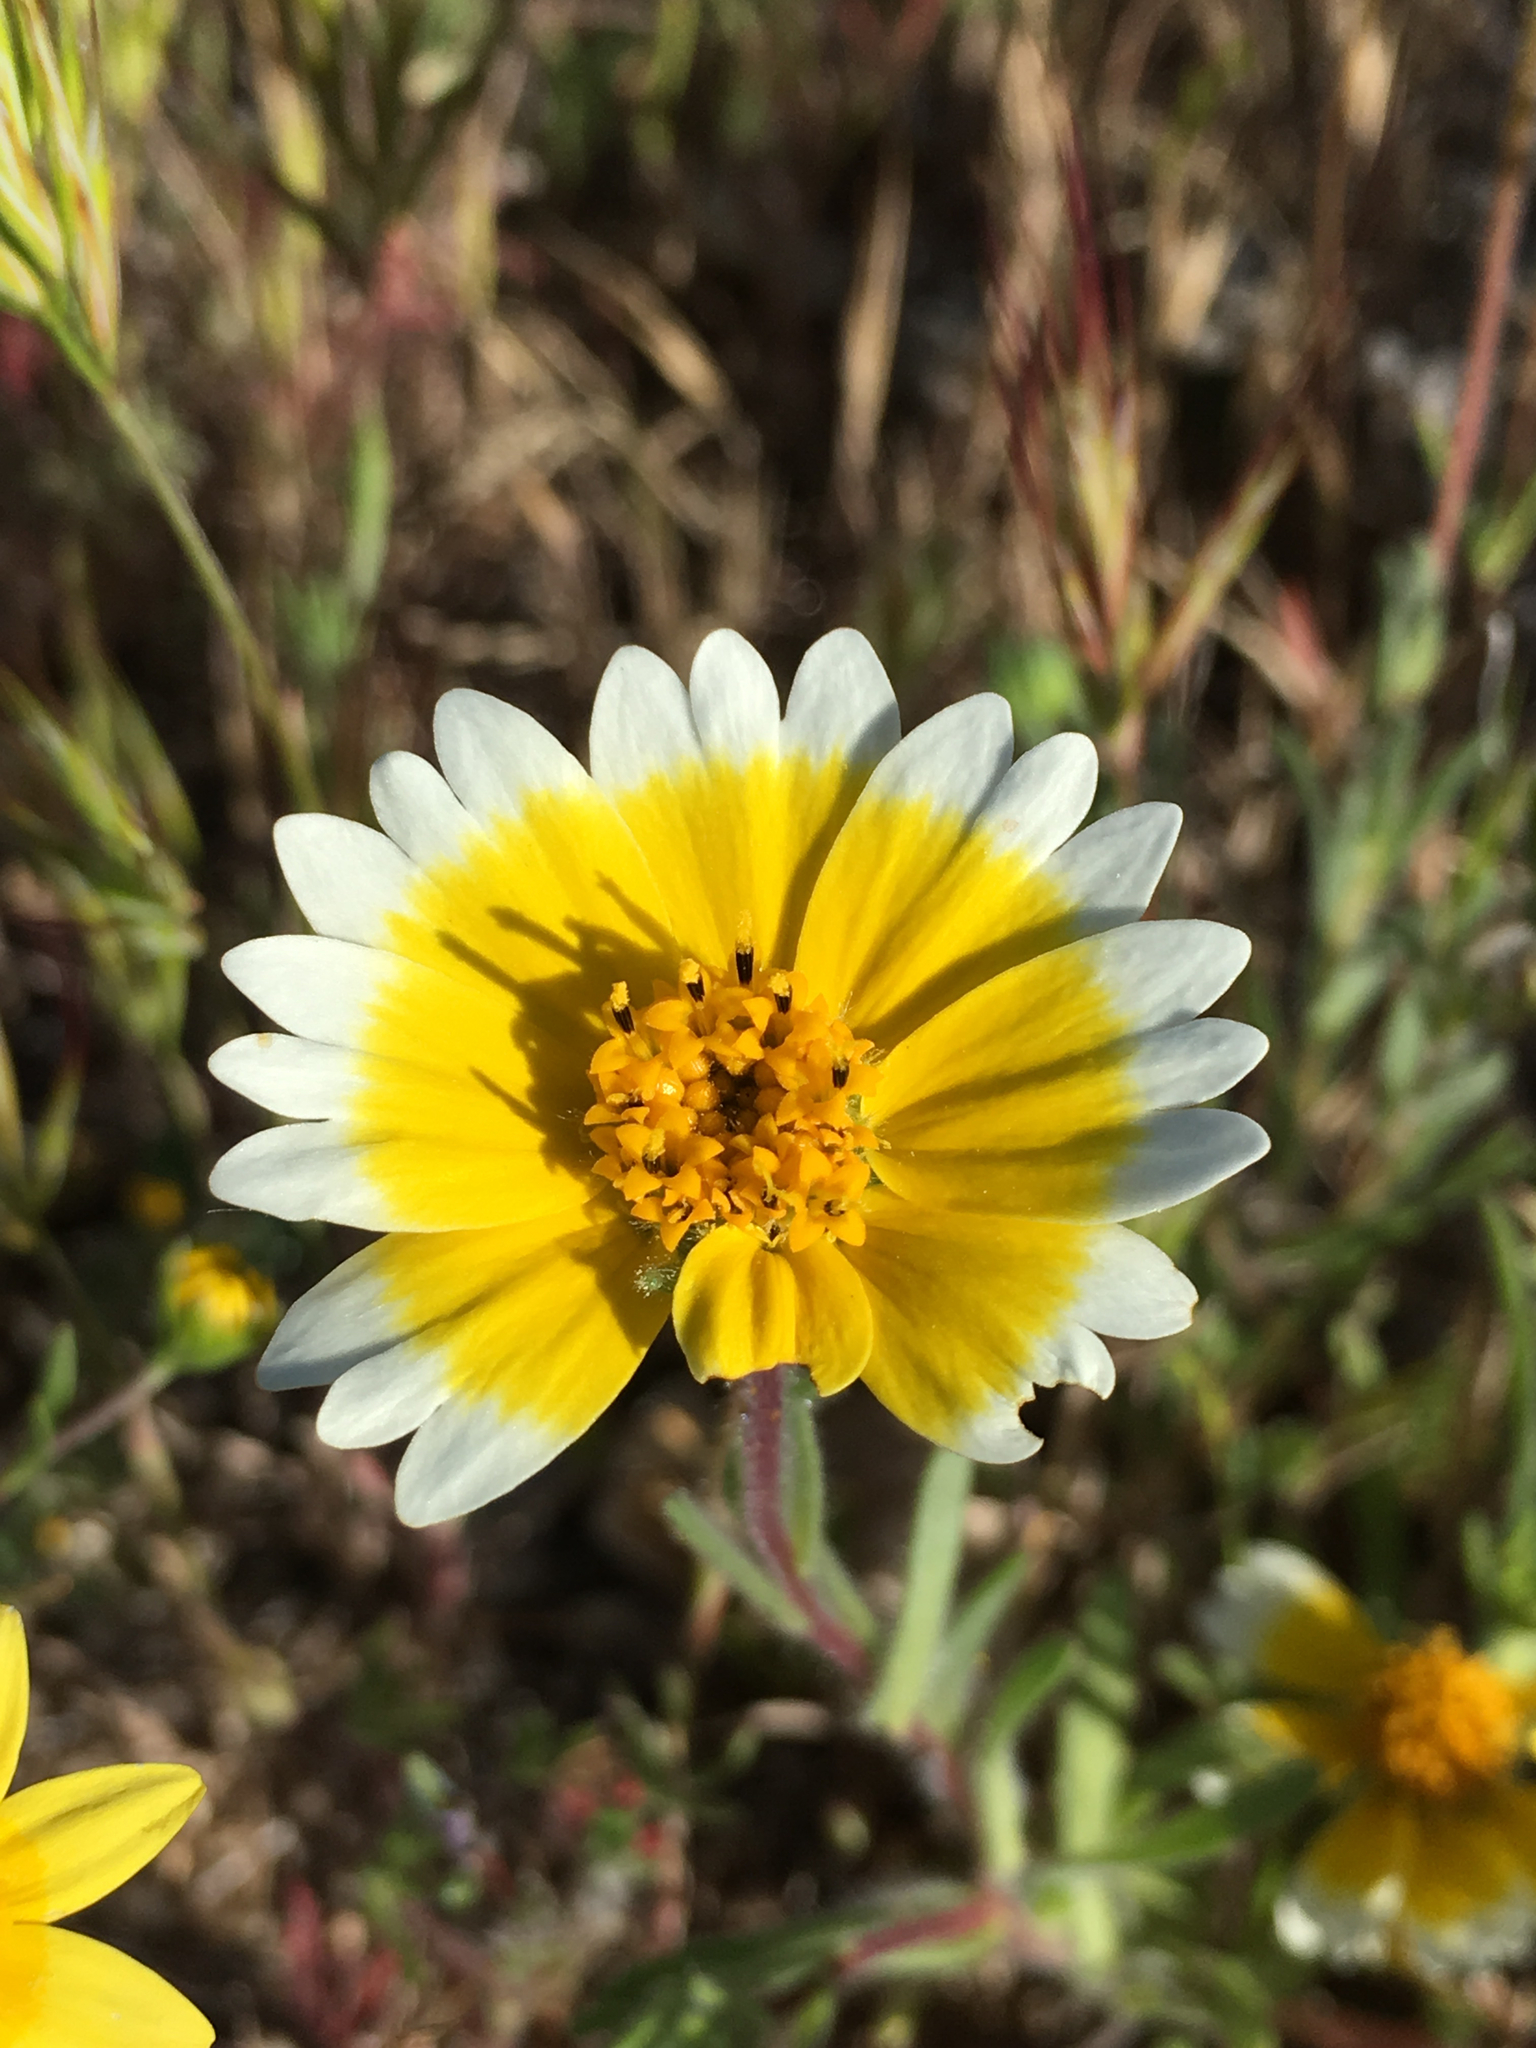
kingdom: Plantae
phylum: Tracheophyta
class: Magnoliopsida
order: Asterales
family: Asteraceae
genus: Layia
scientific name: Layia platyglossa
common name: Tidy-tips
